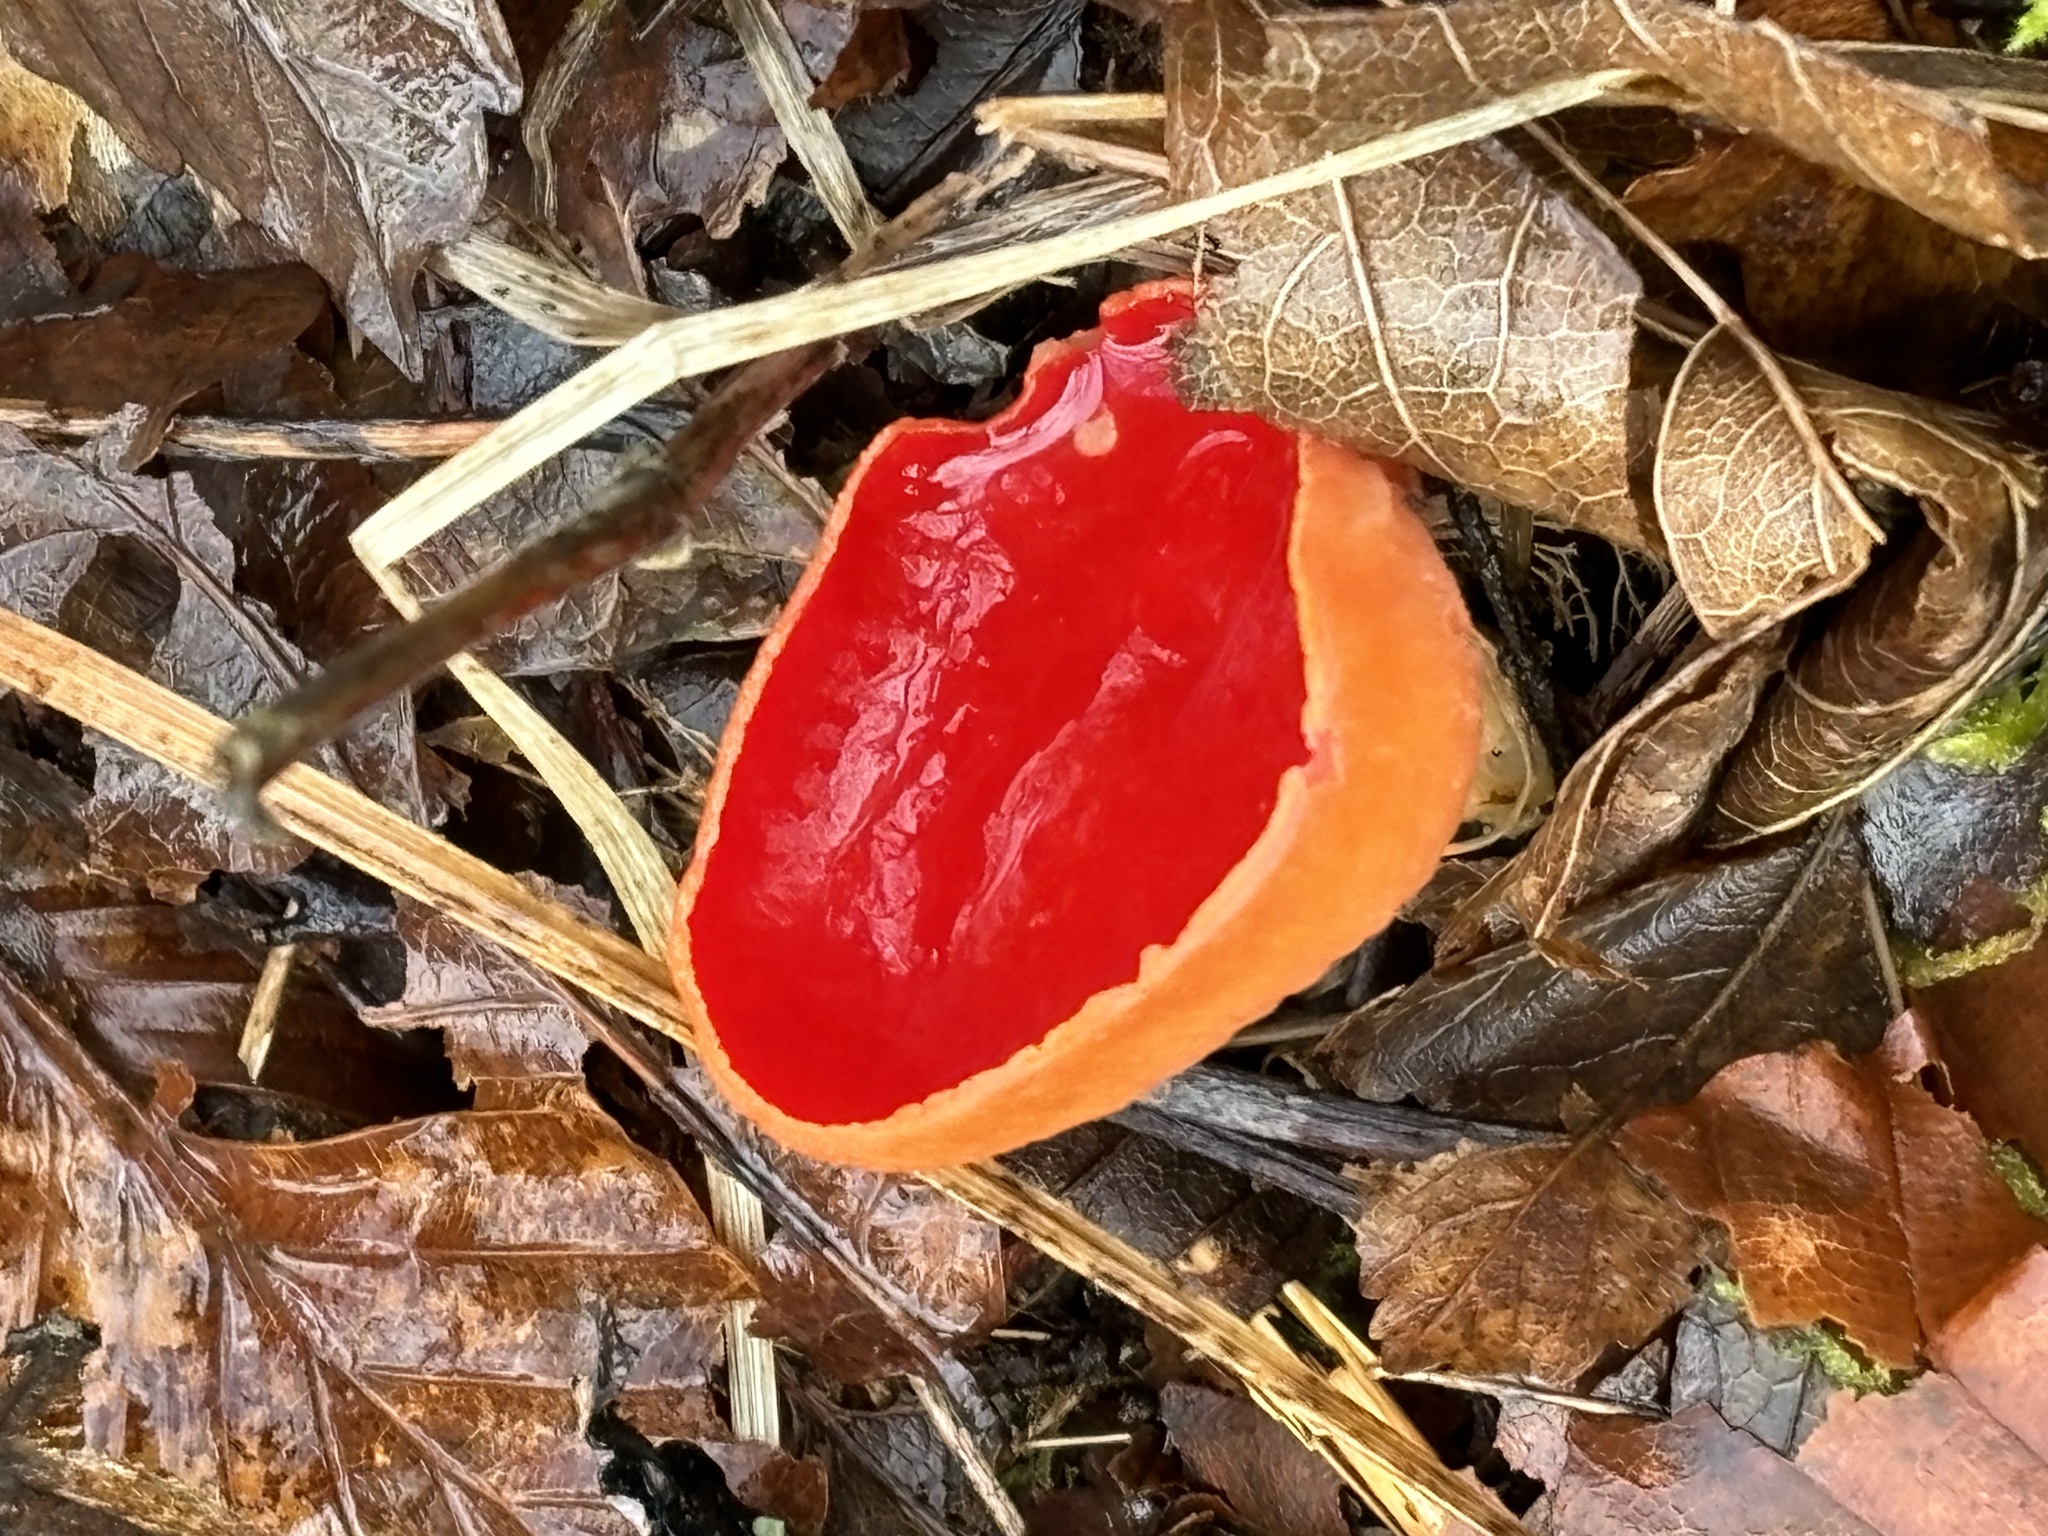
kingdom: Fungi
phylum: Ascomycota
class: Pezizomycetes
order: Pezizales
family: Sarcoscyphaceae
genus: Sarcoscypha
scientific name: Sarcoscypha
